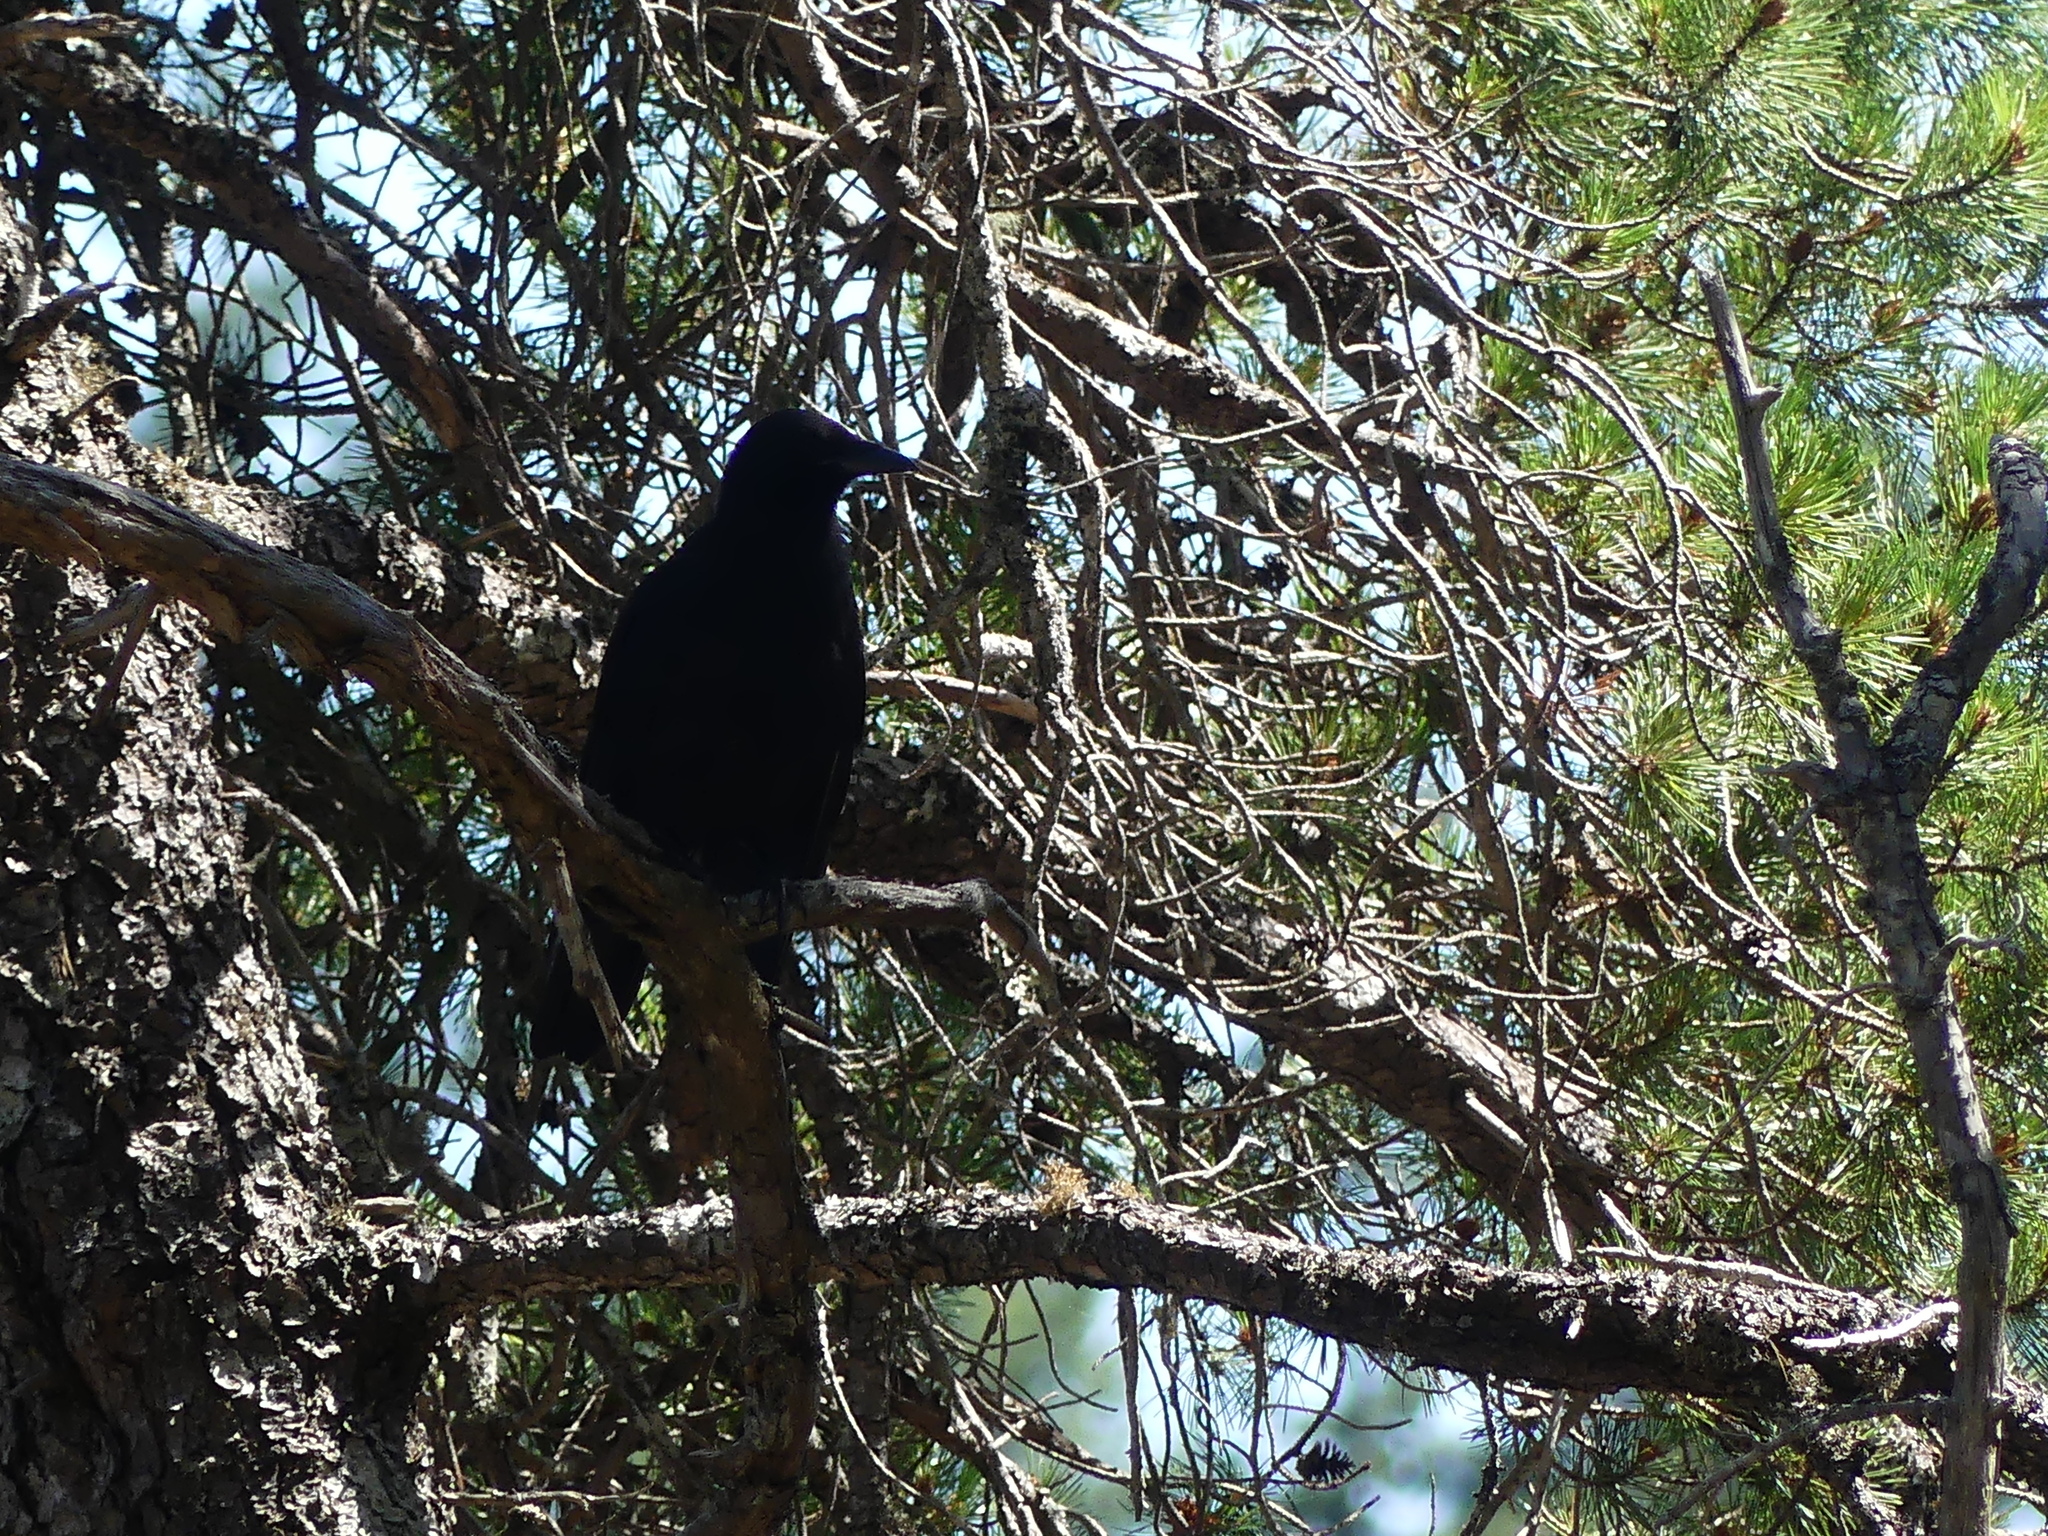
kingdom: Animalia
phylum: Chordata
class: Aves
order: Passeriformes
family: Corvidae
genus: Corvus
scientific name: Corvus brachyrhynchos
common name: American crow
